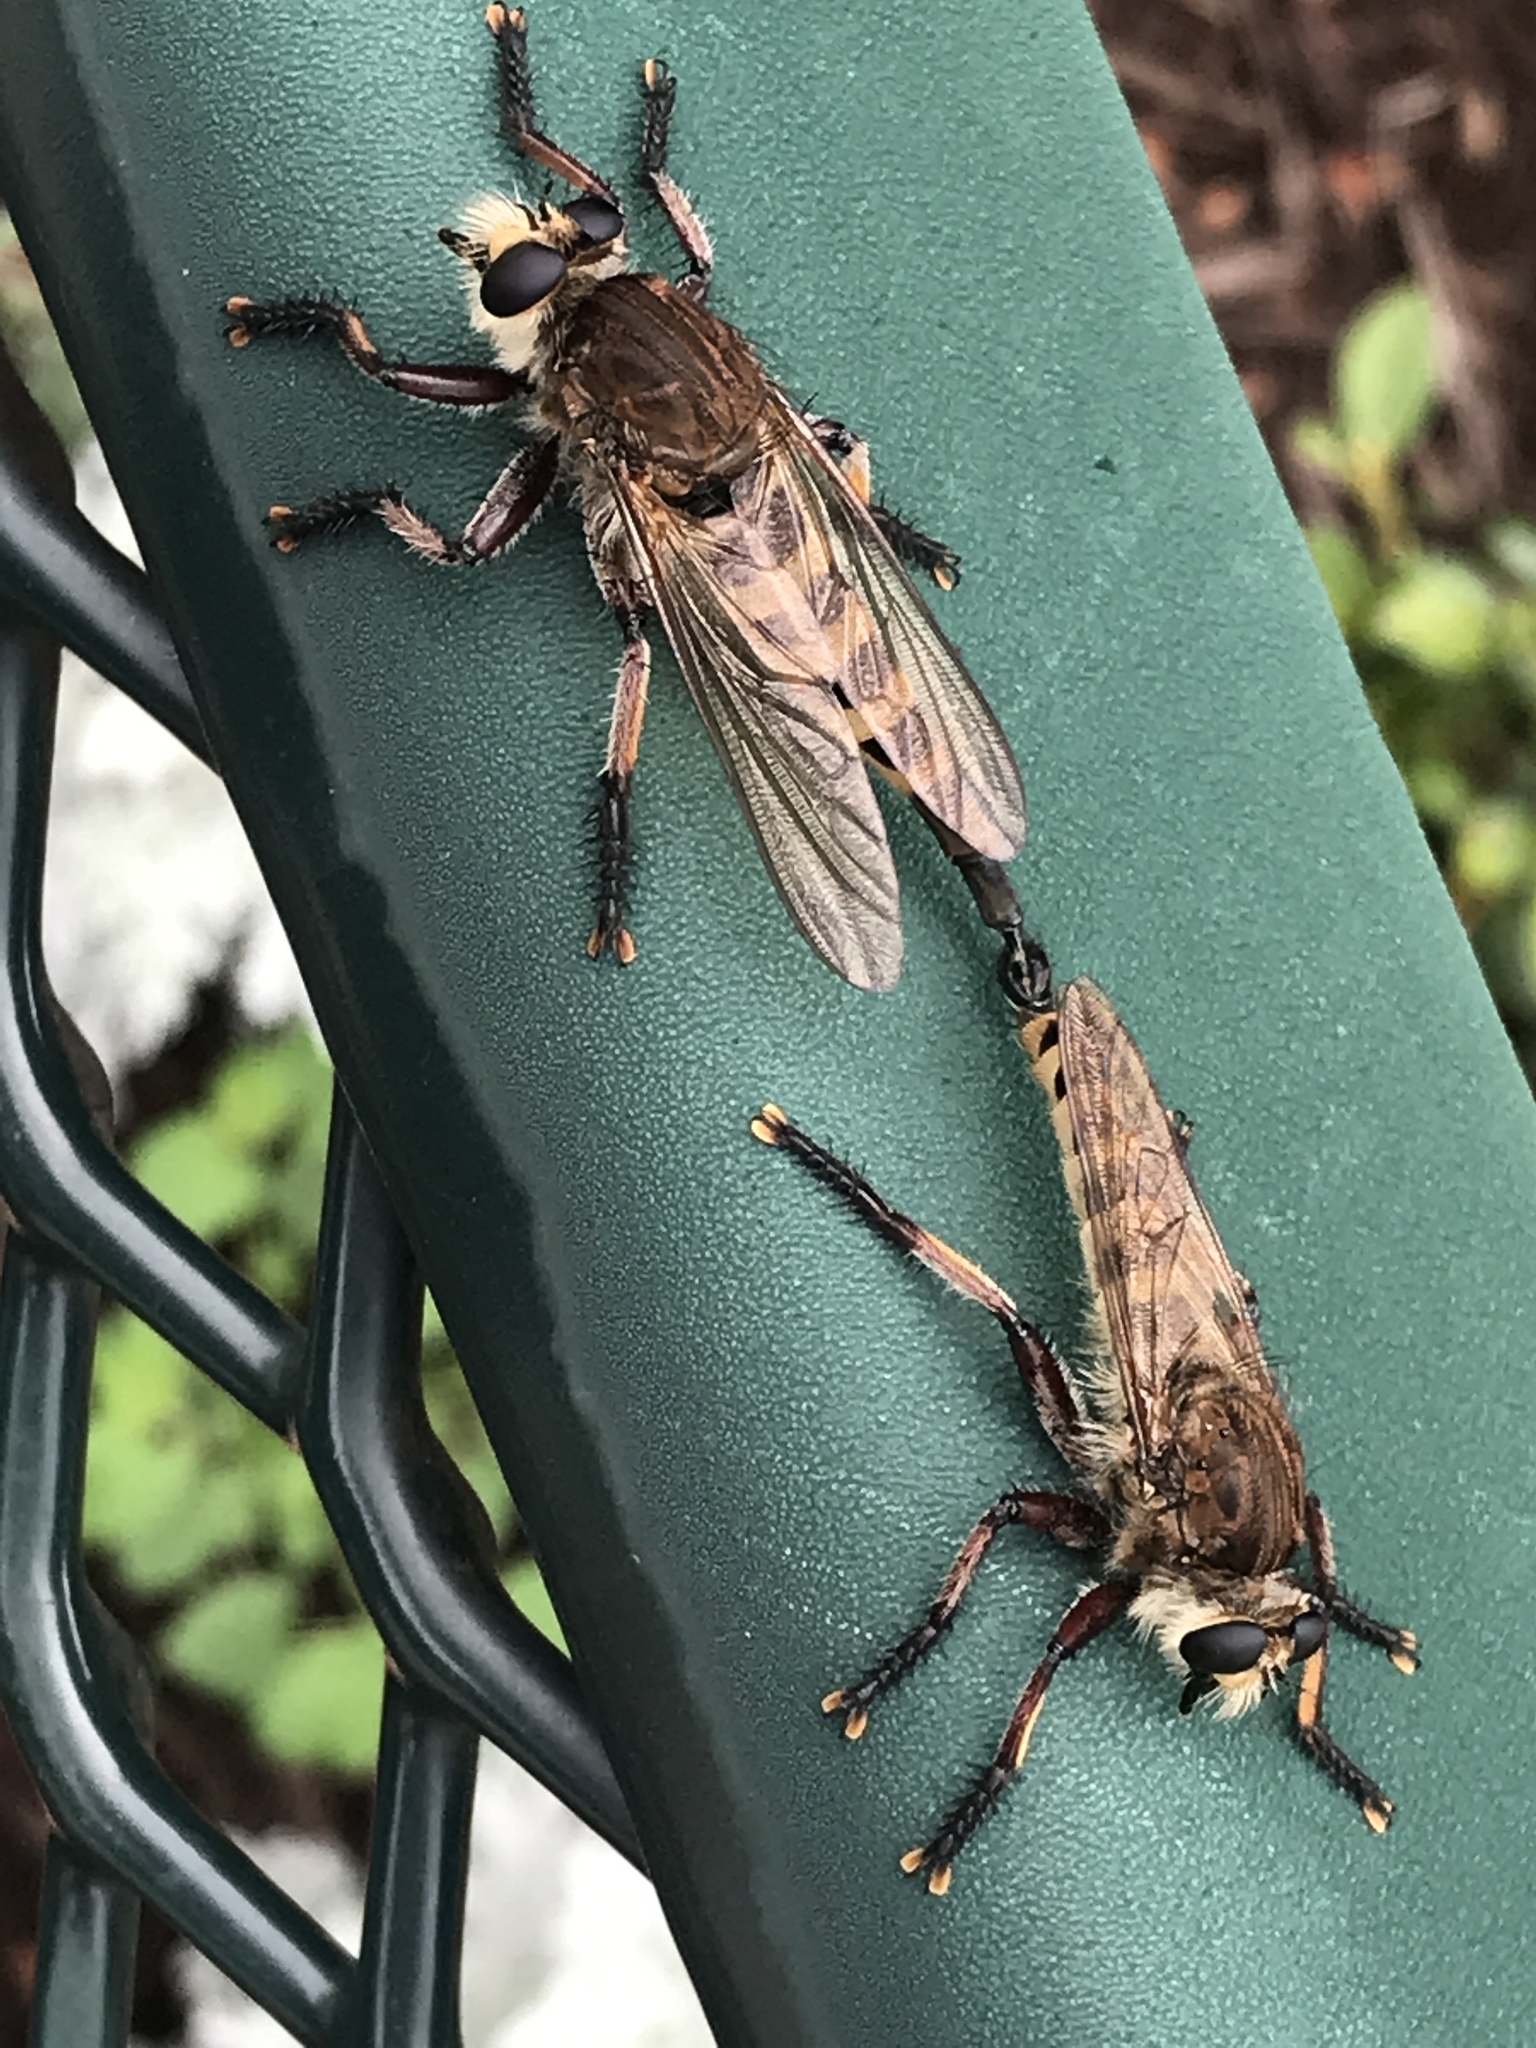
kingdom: Animalia
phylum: Arthropoda
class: Insecta
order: Diptera
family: Asilidae
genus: Promachus
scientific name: Promachus hinei
